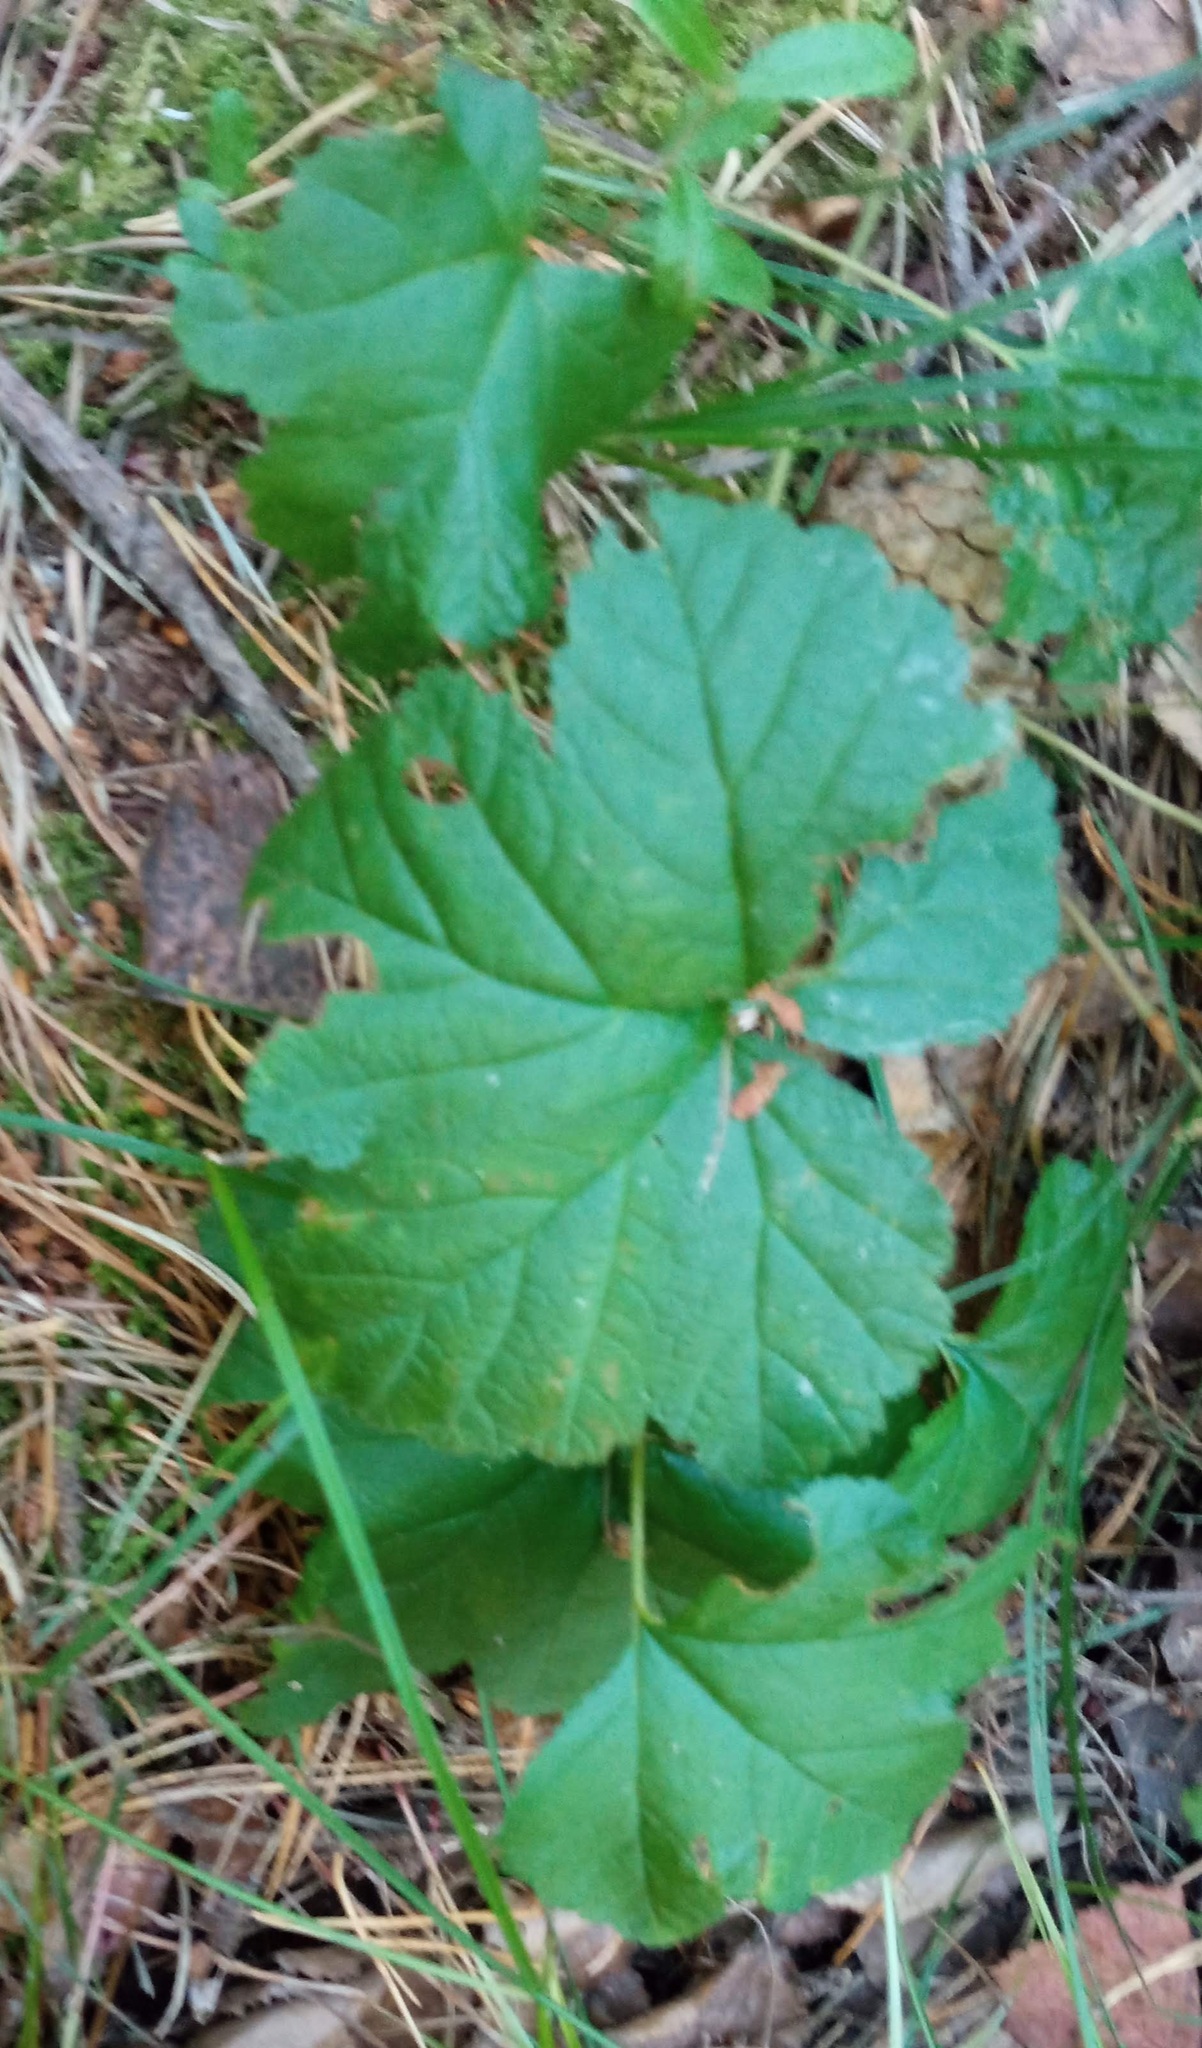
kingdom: Plantae
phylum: Tracheophyta
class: Magnoliopsida
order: Rosales
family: Rosaceae
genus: Rubus
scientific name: Rubus chamaemorus
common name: Cloudberry
